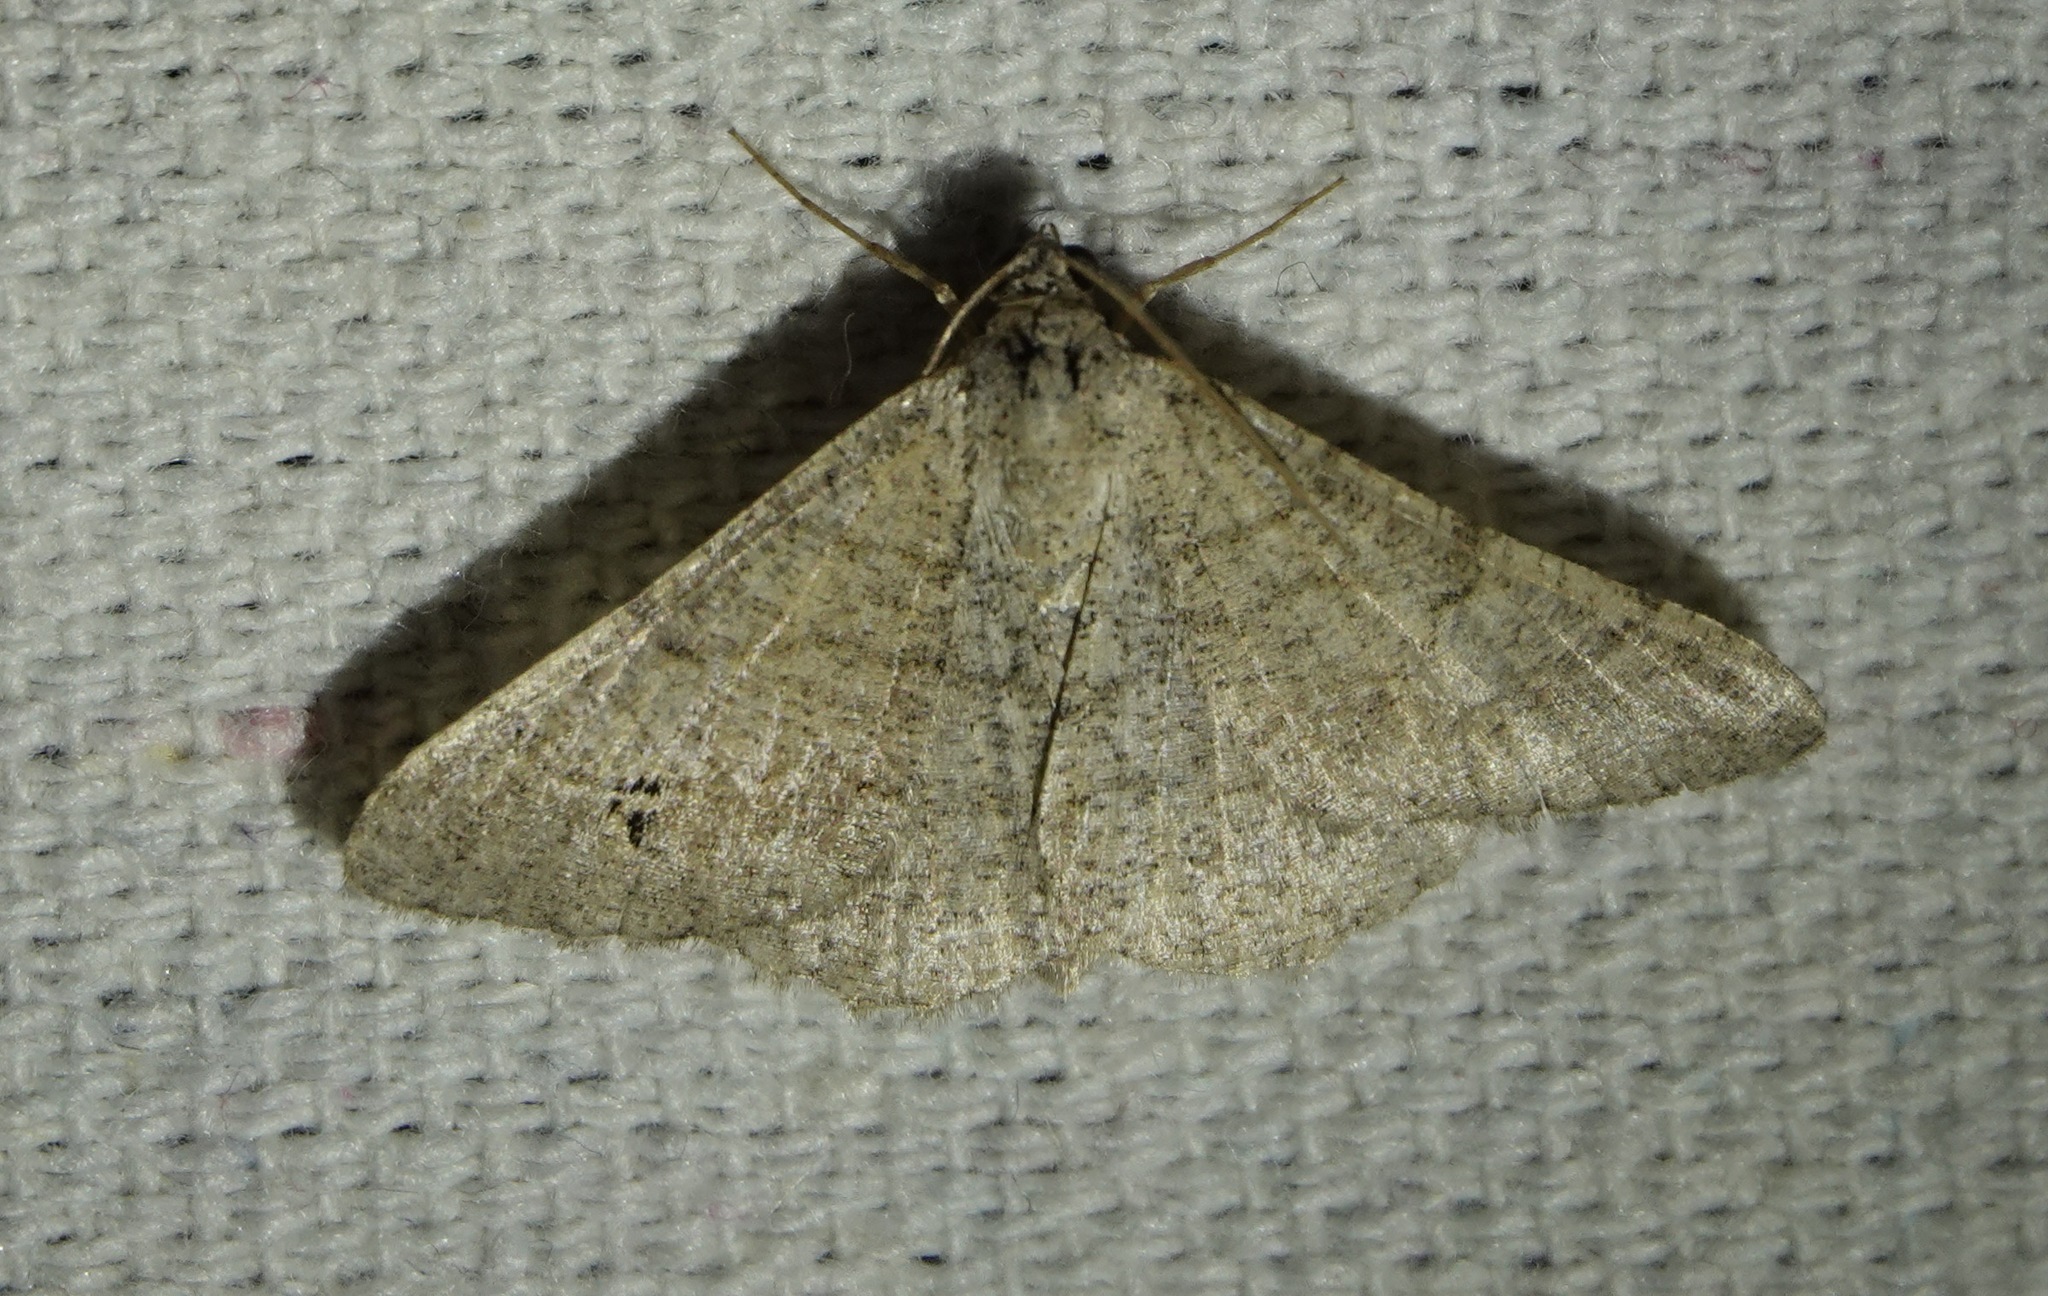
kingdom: Animalia
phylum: Arthropoda
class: Insecta
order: Lepidoptera
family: Geometridae
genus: Digrammia
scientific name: Digrammia muscariata
